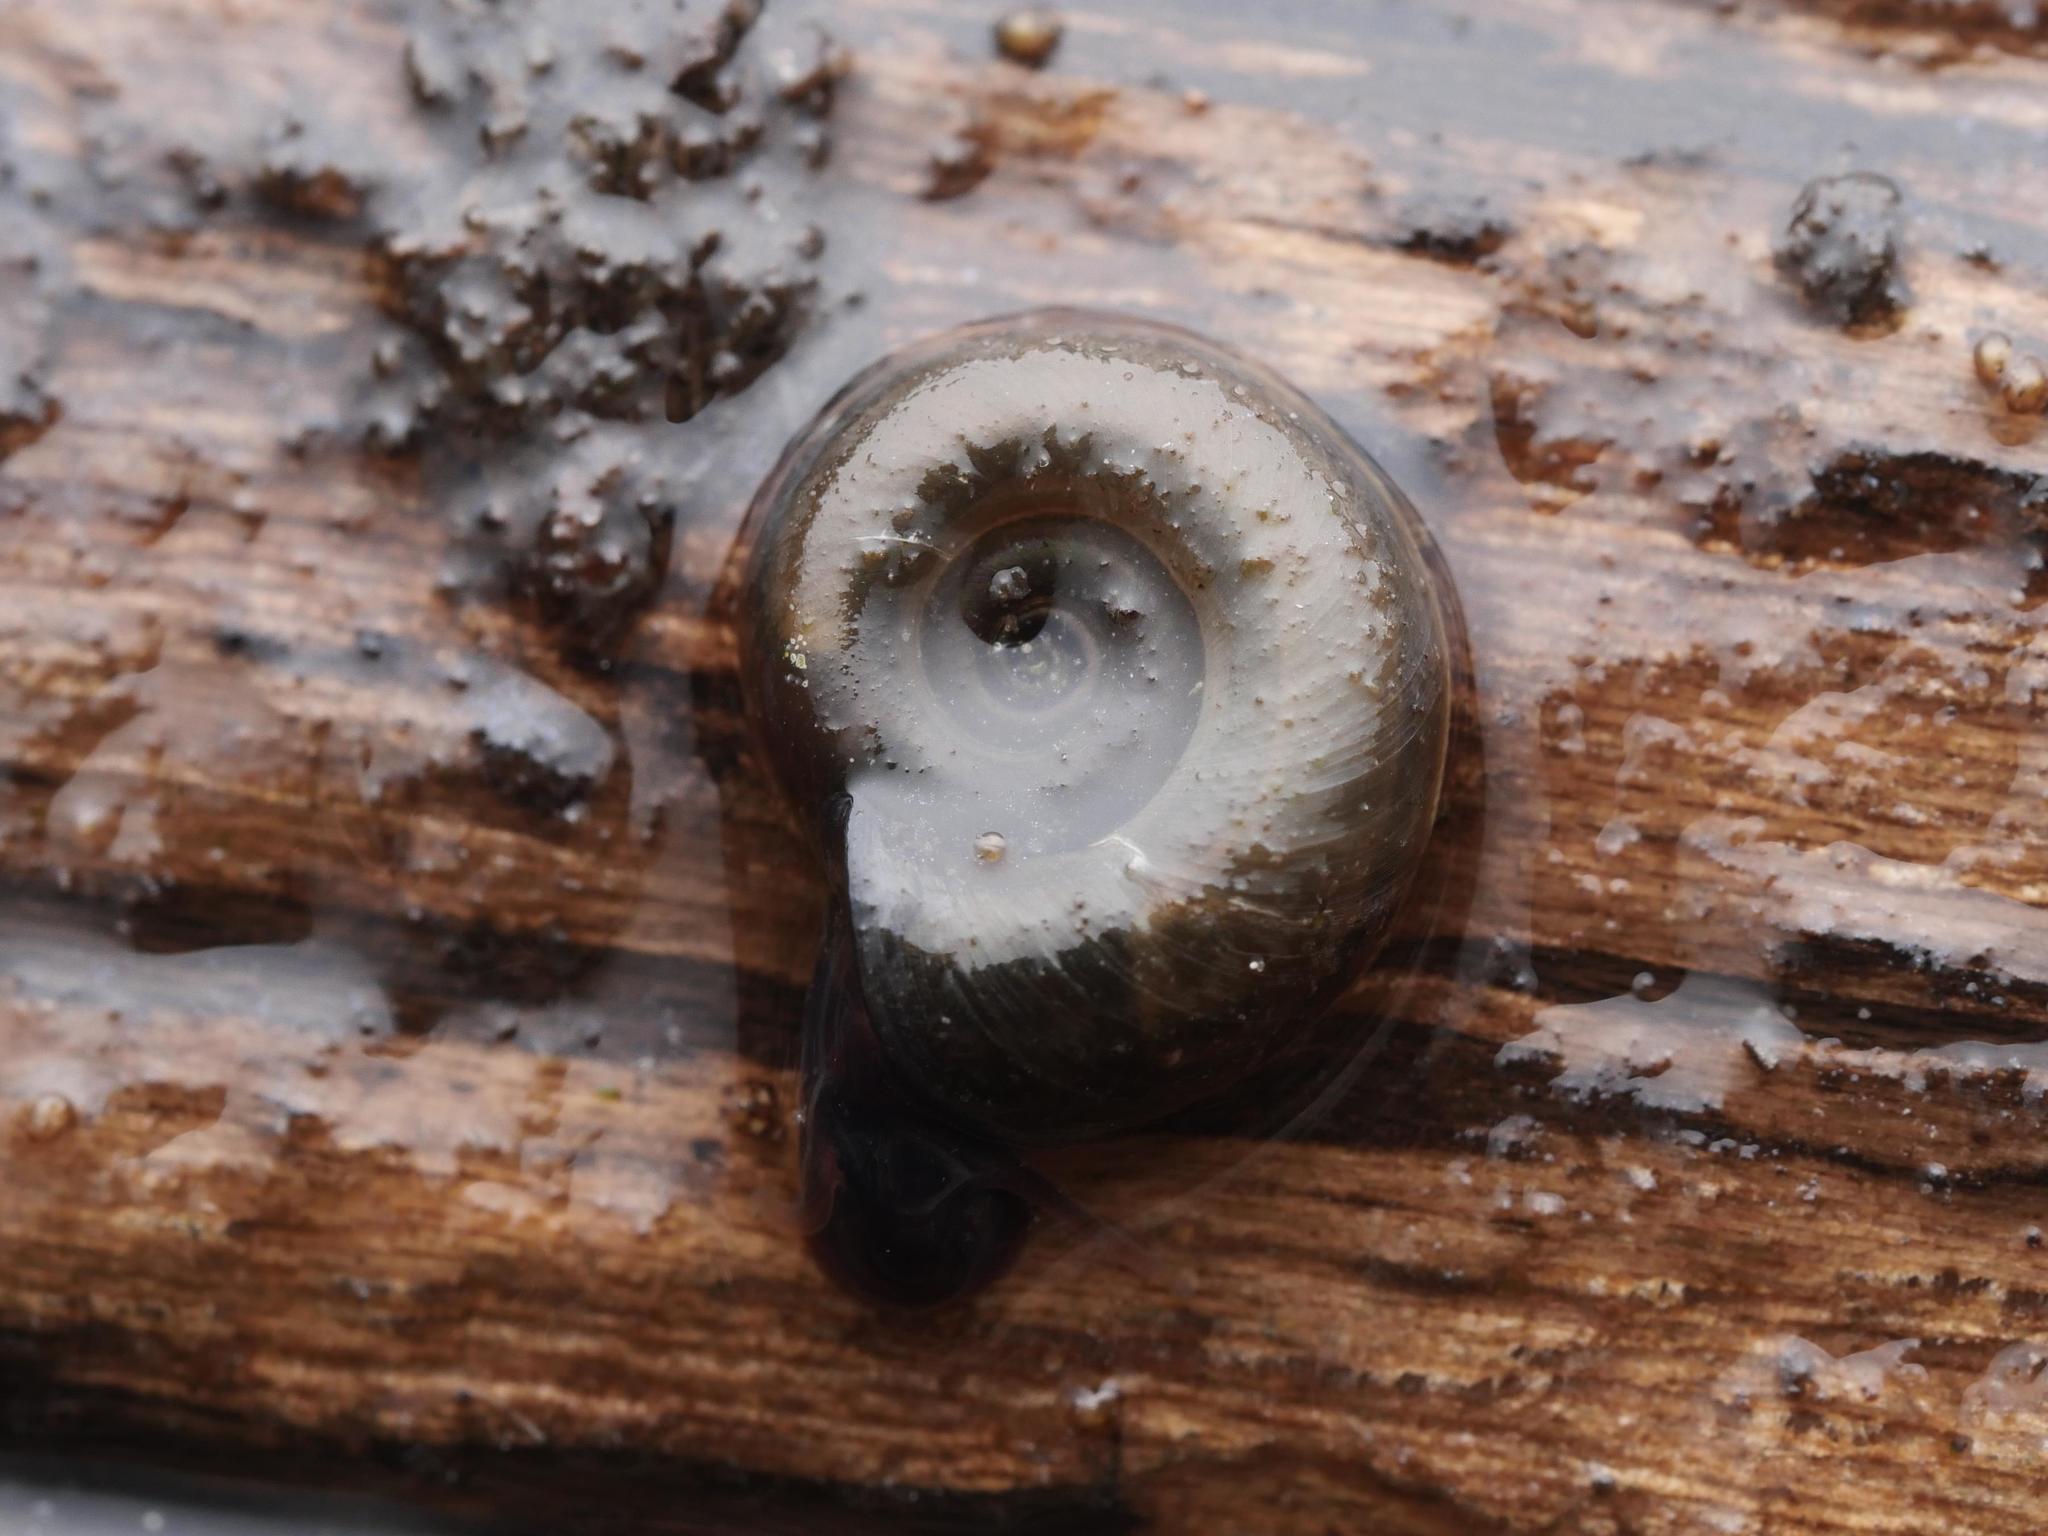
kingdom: Animalia
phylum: Mollusca
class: Gastropoda
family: Planorbidae
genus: Planorbarius
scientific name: Planorbarius corneus
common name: Great ramshorn
